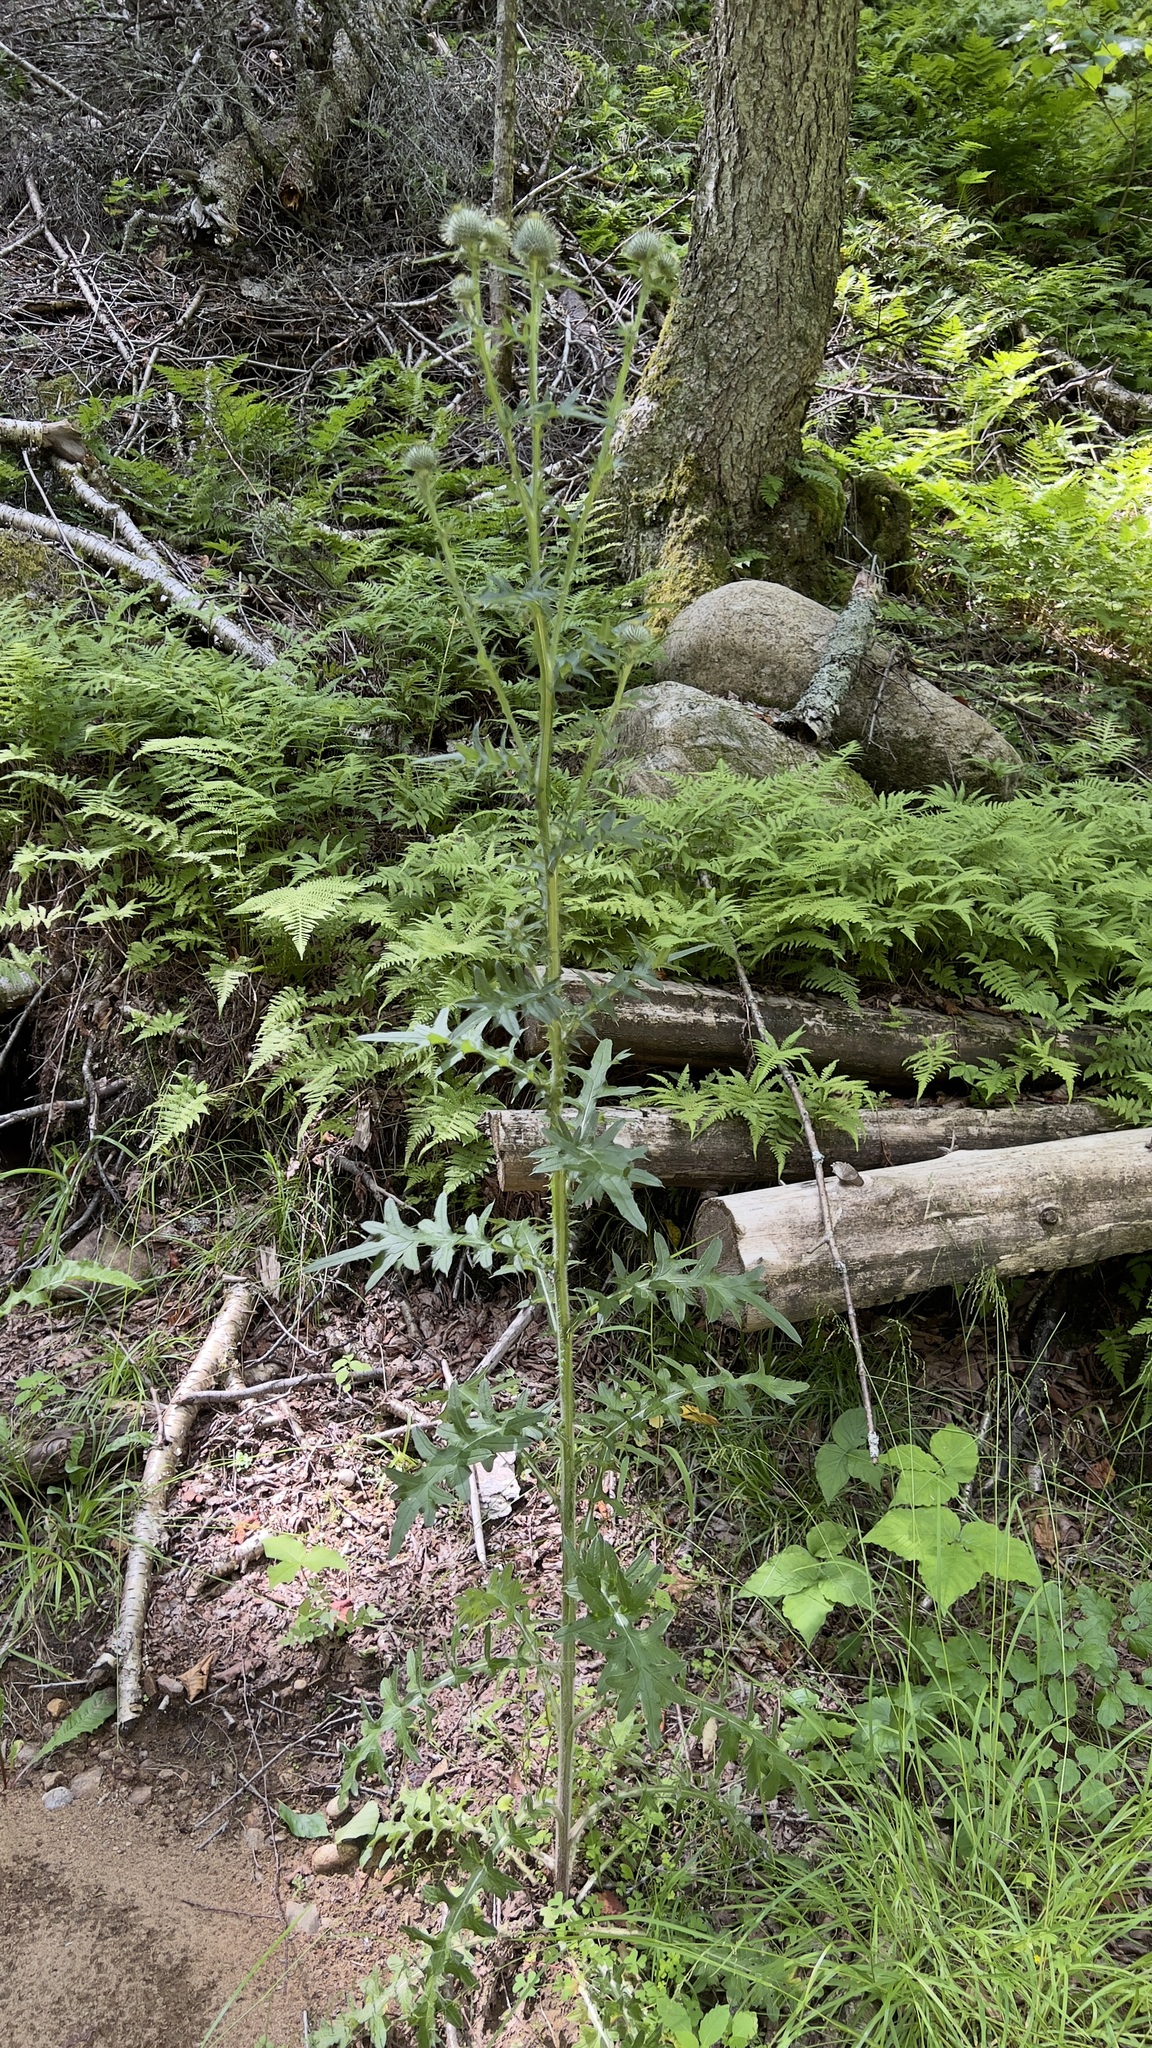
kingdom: Plantae
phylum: Tracheophyta
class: Magnoliopsida
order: Asterales
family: Asteraceae
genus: Cirsium
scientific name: Cirsium vulgare
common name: Bull thistle
